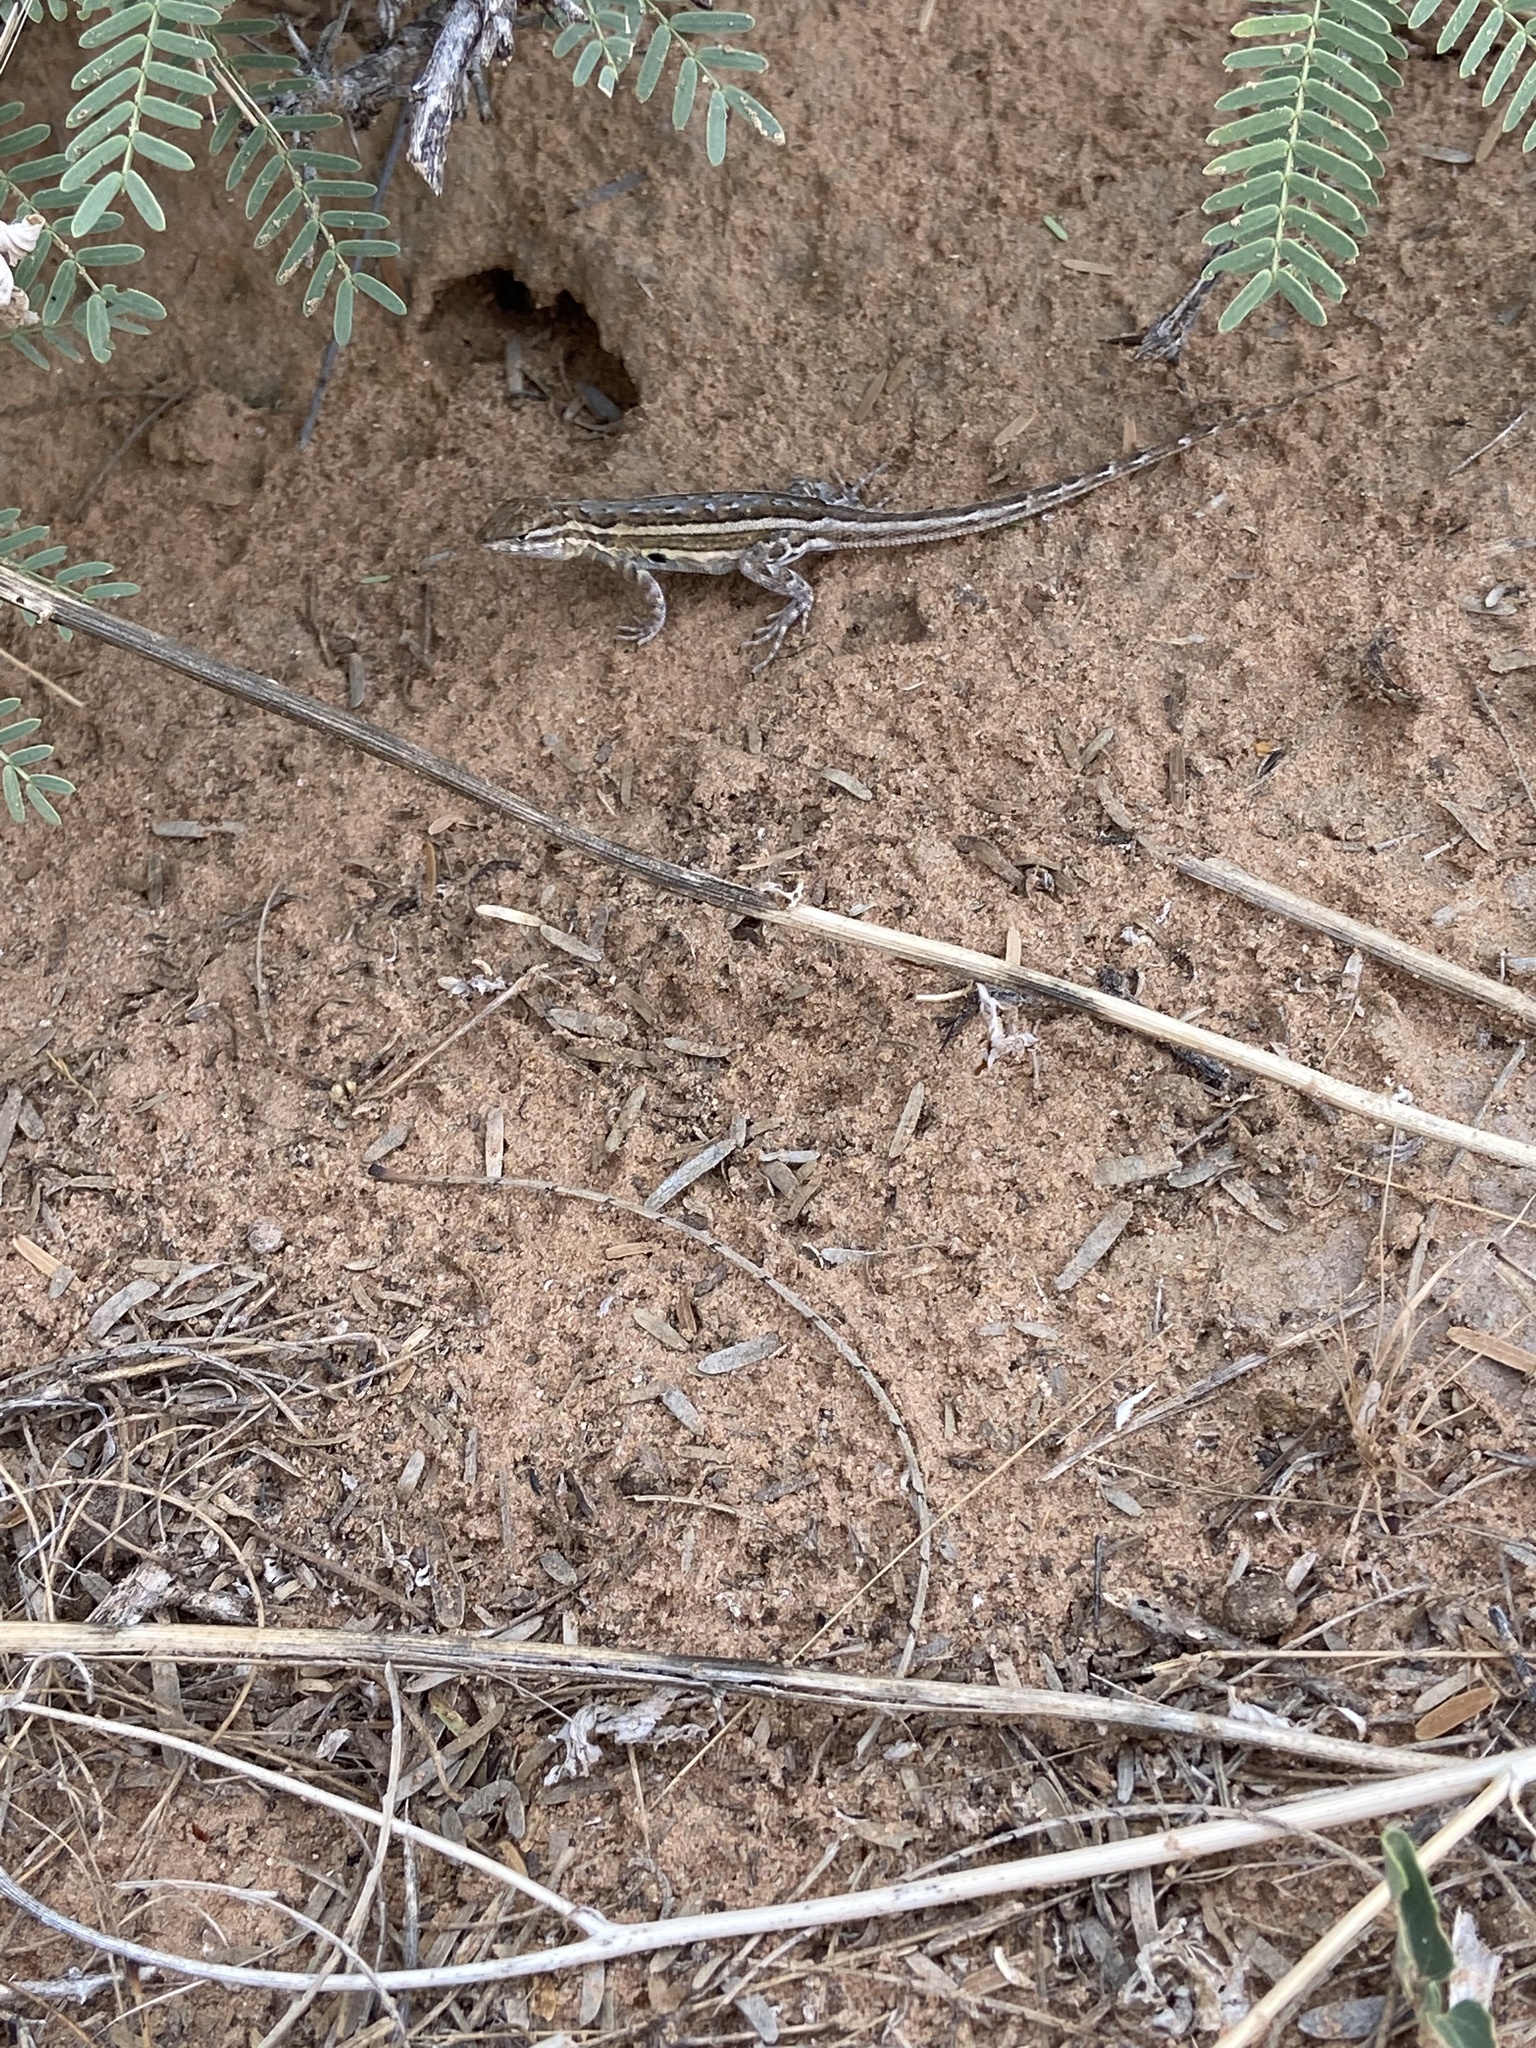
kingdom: Animalia
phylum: Chordata
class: Squamata
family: Phrynosomatidae
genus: Uta
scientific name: Uta stansburiana
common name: Side-blotched lizard
